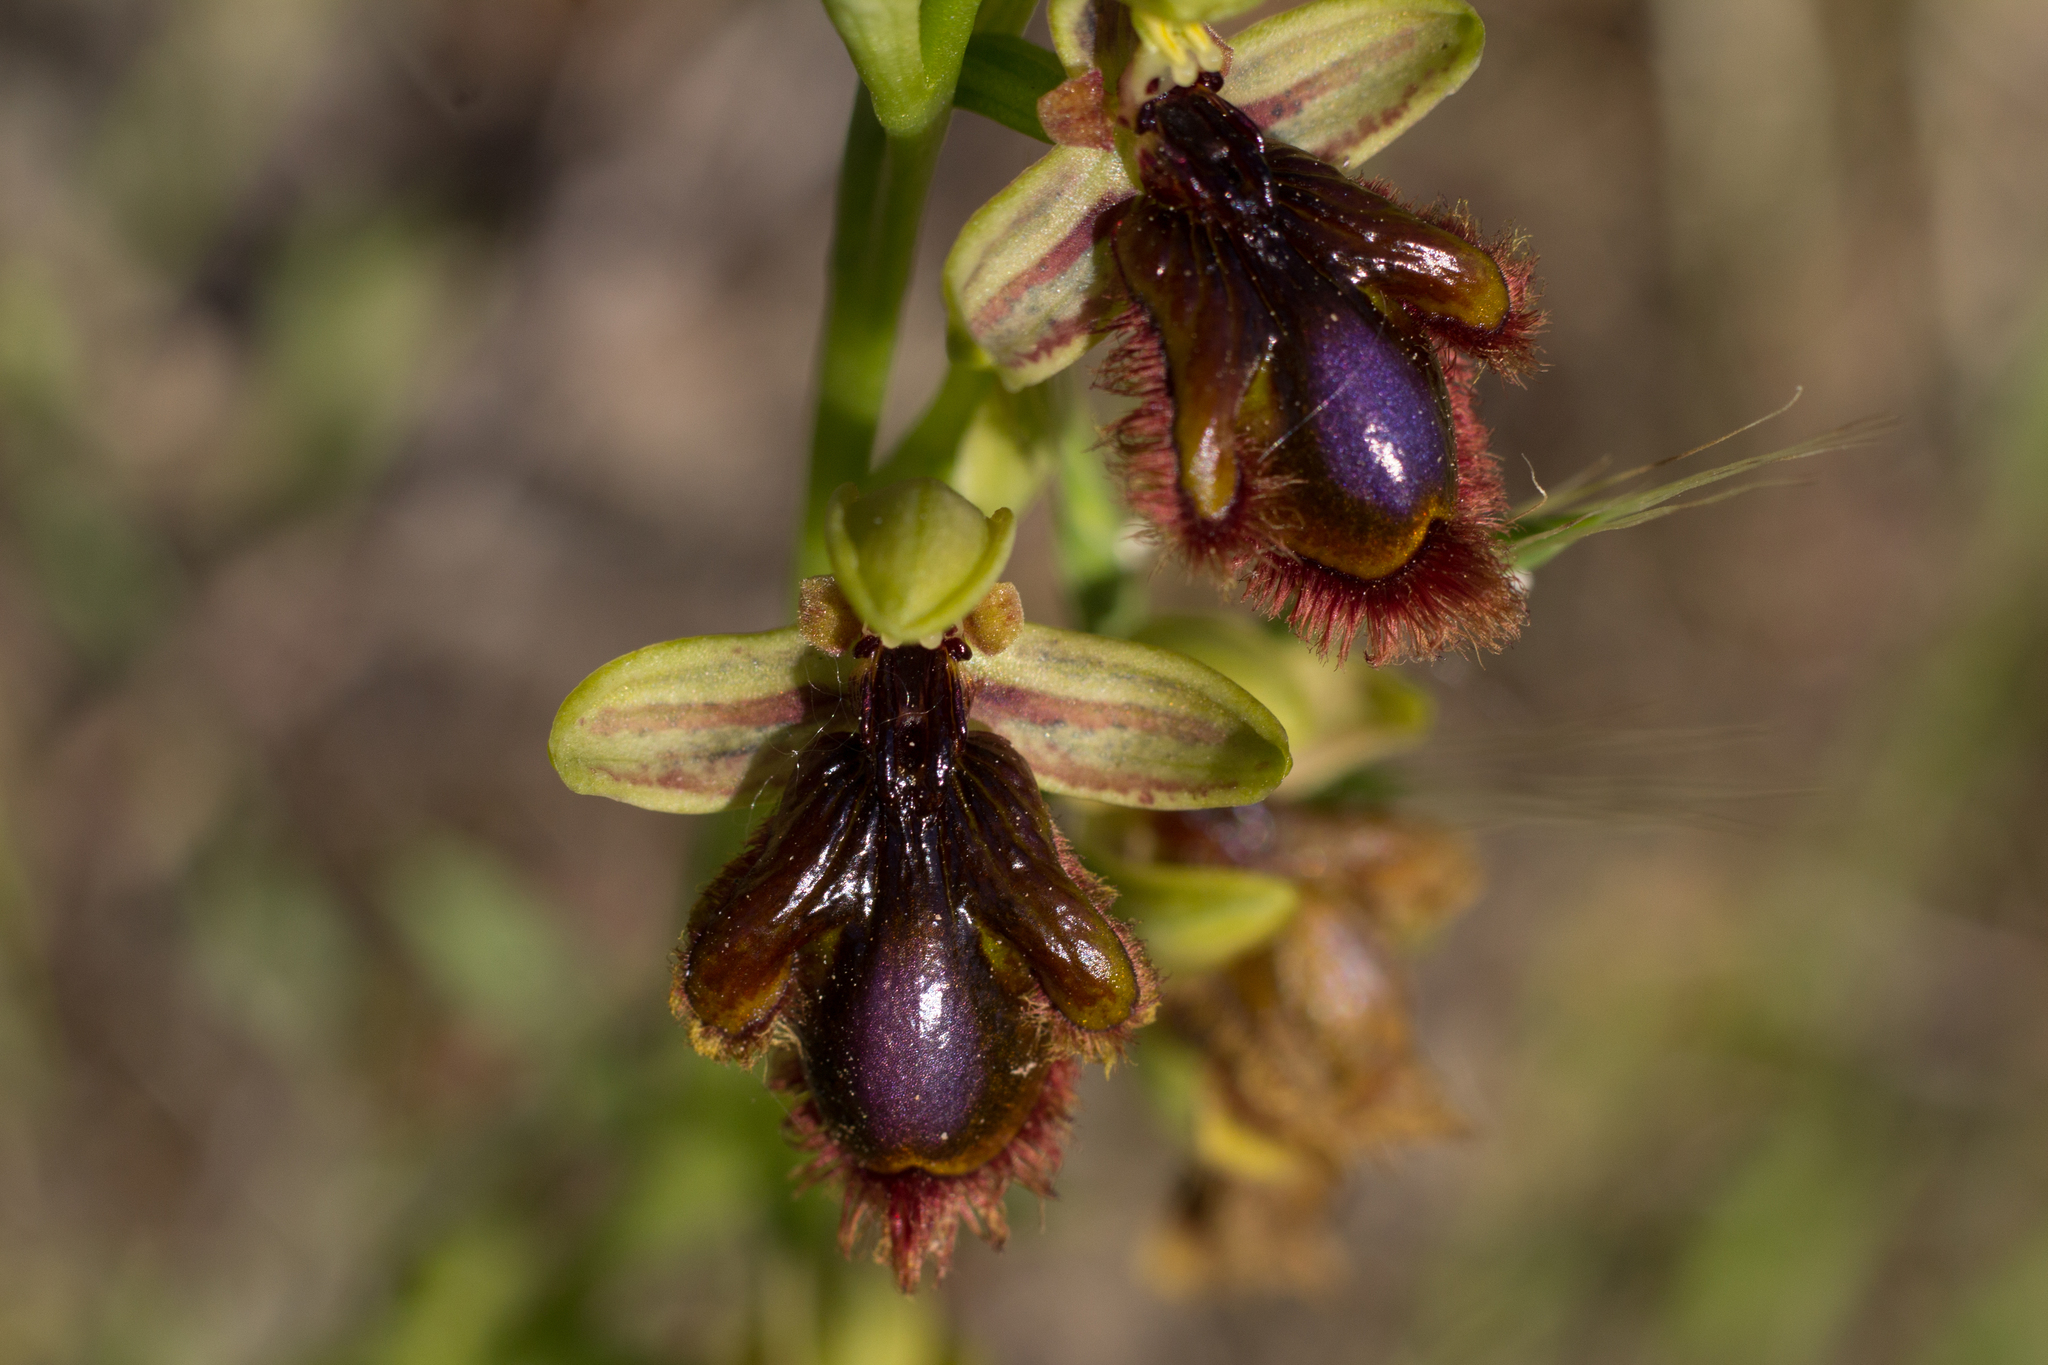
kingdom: Plantae
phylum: Tracheophyta
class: Liliopsida
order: Asparagales
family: Orchidaceae
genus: Ophrys
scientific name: Ophrys speculum
